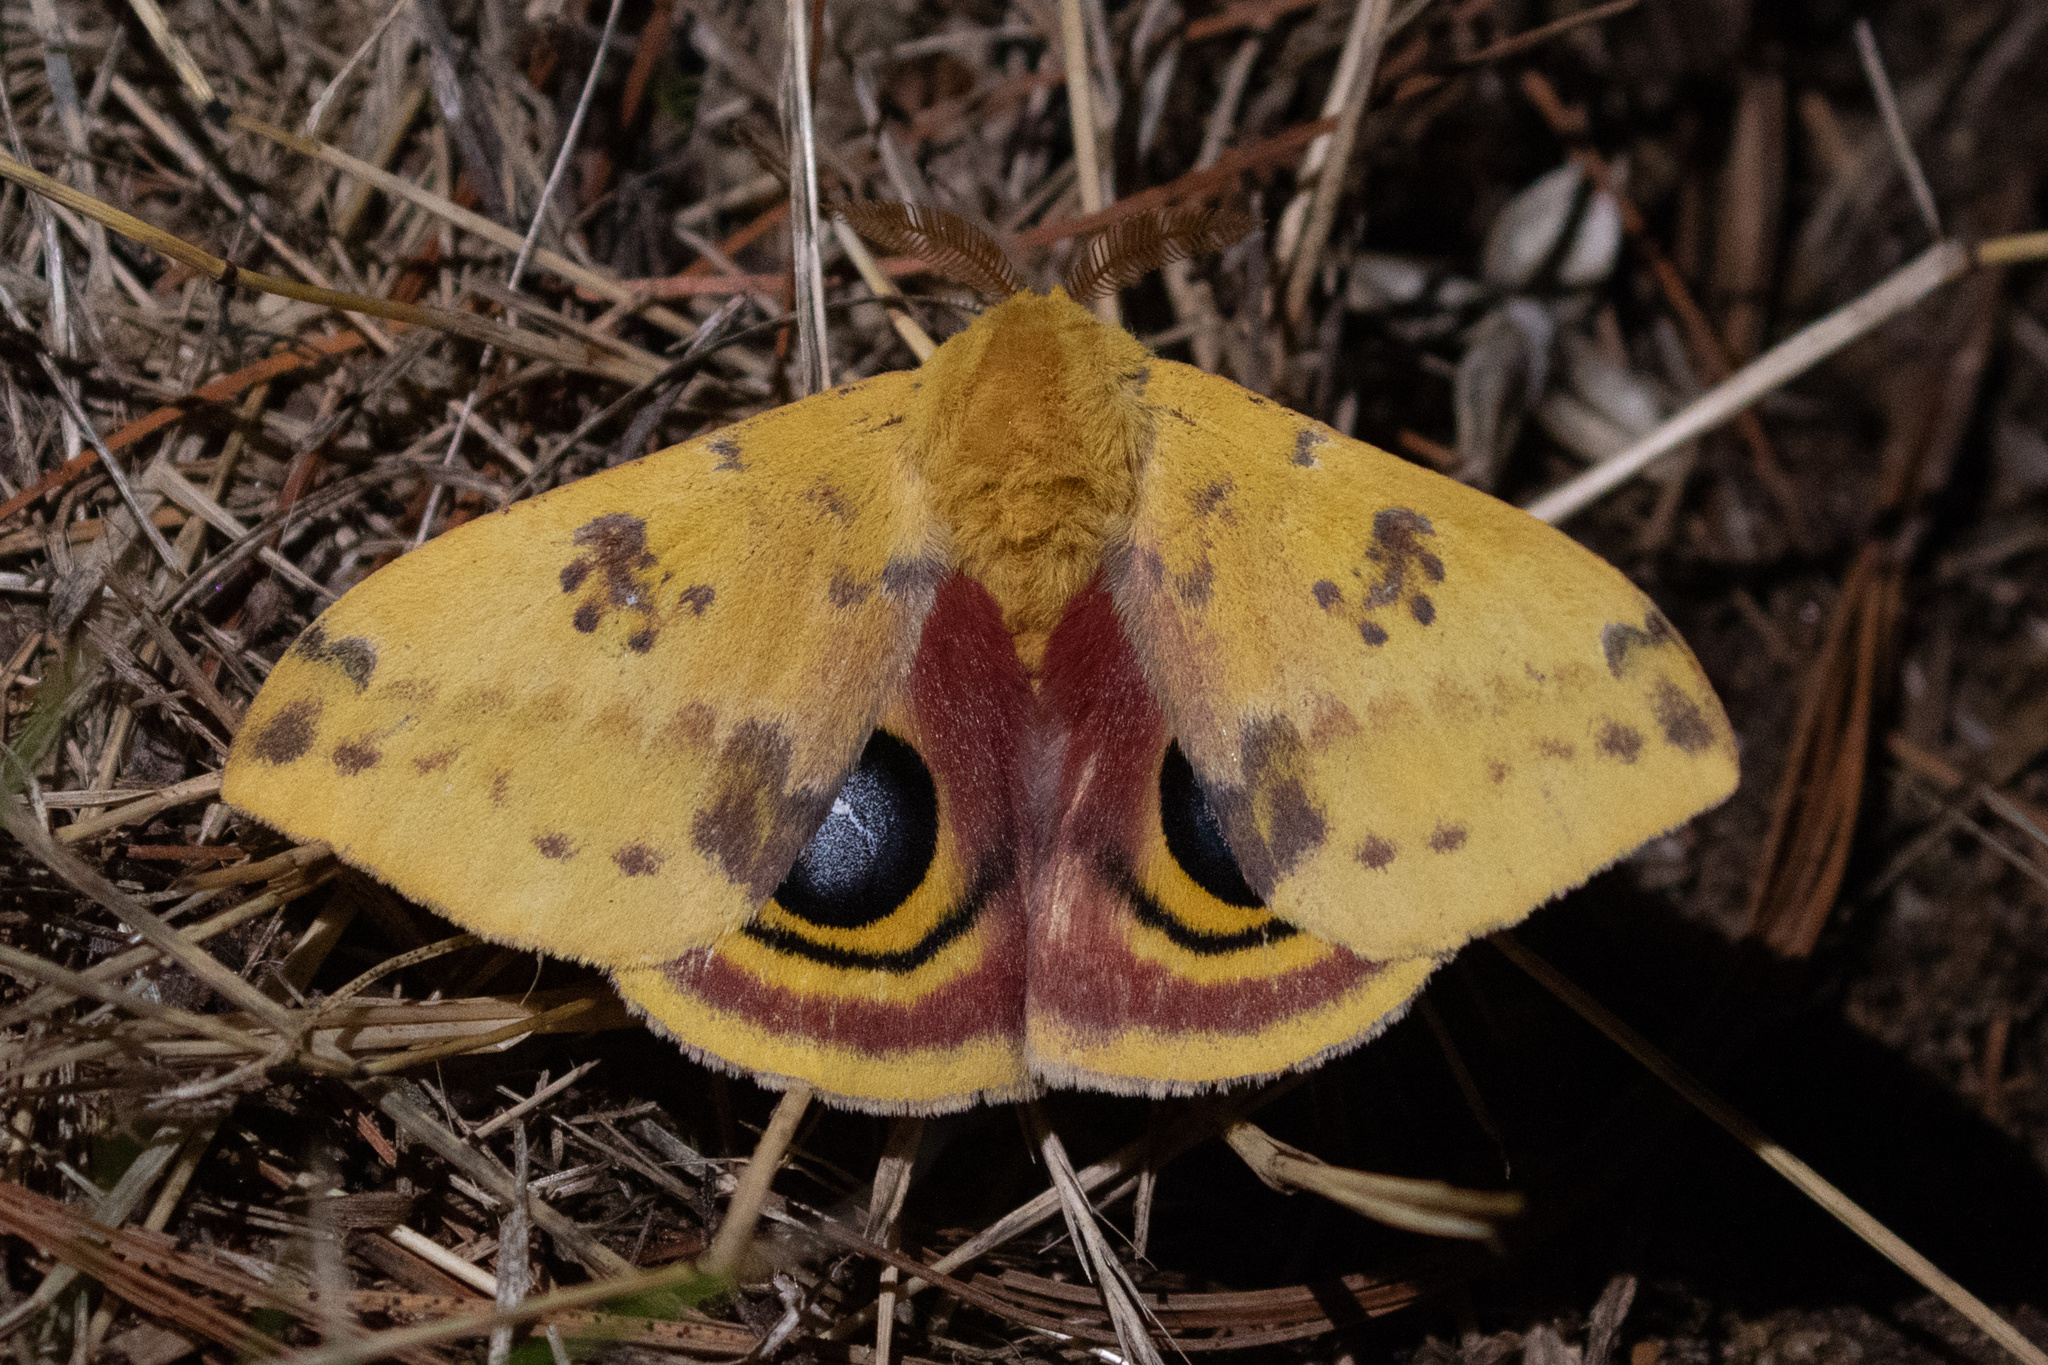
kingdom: Animalia
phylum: Arthropoda
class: Insecta
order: Lepidoptera
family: Saturniidae
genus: Automeris
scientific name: Automeris io
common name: Io moth
